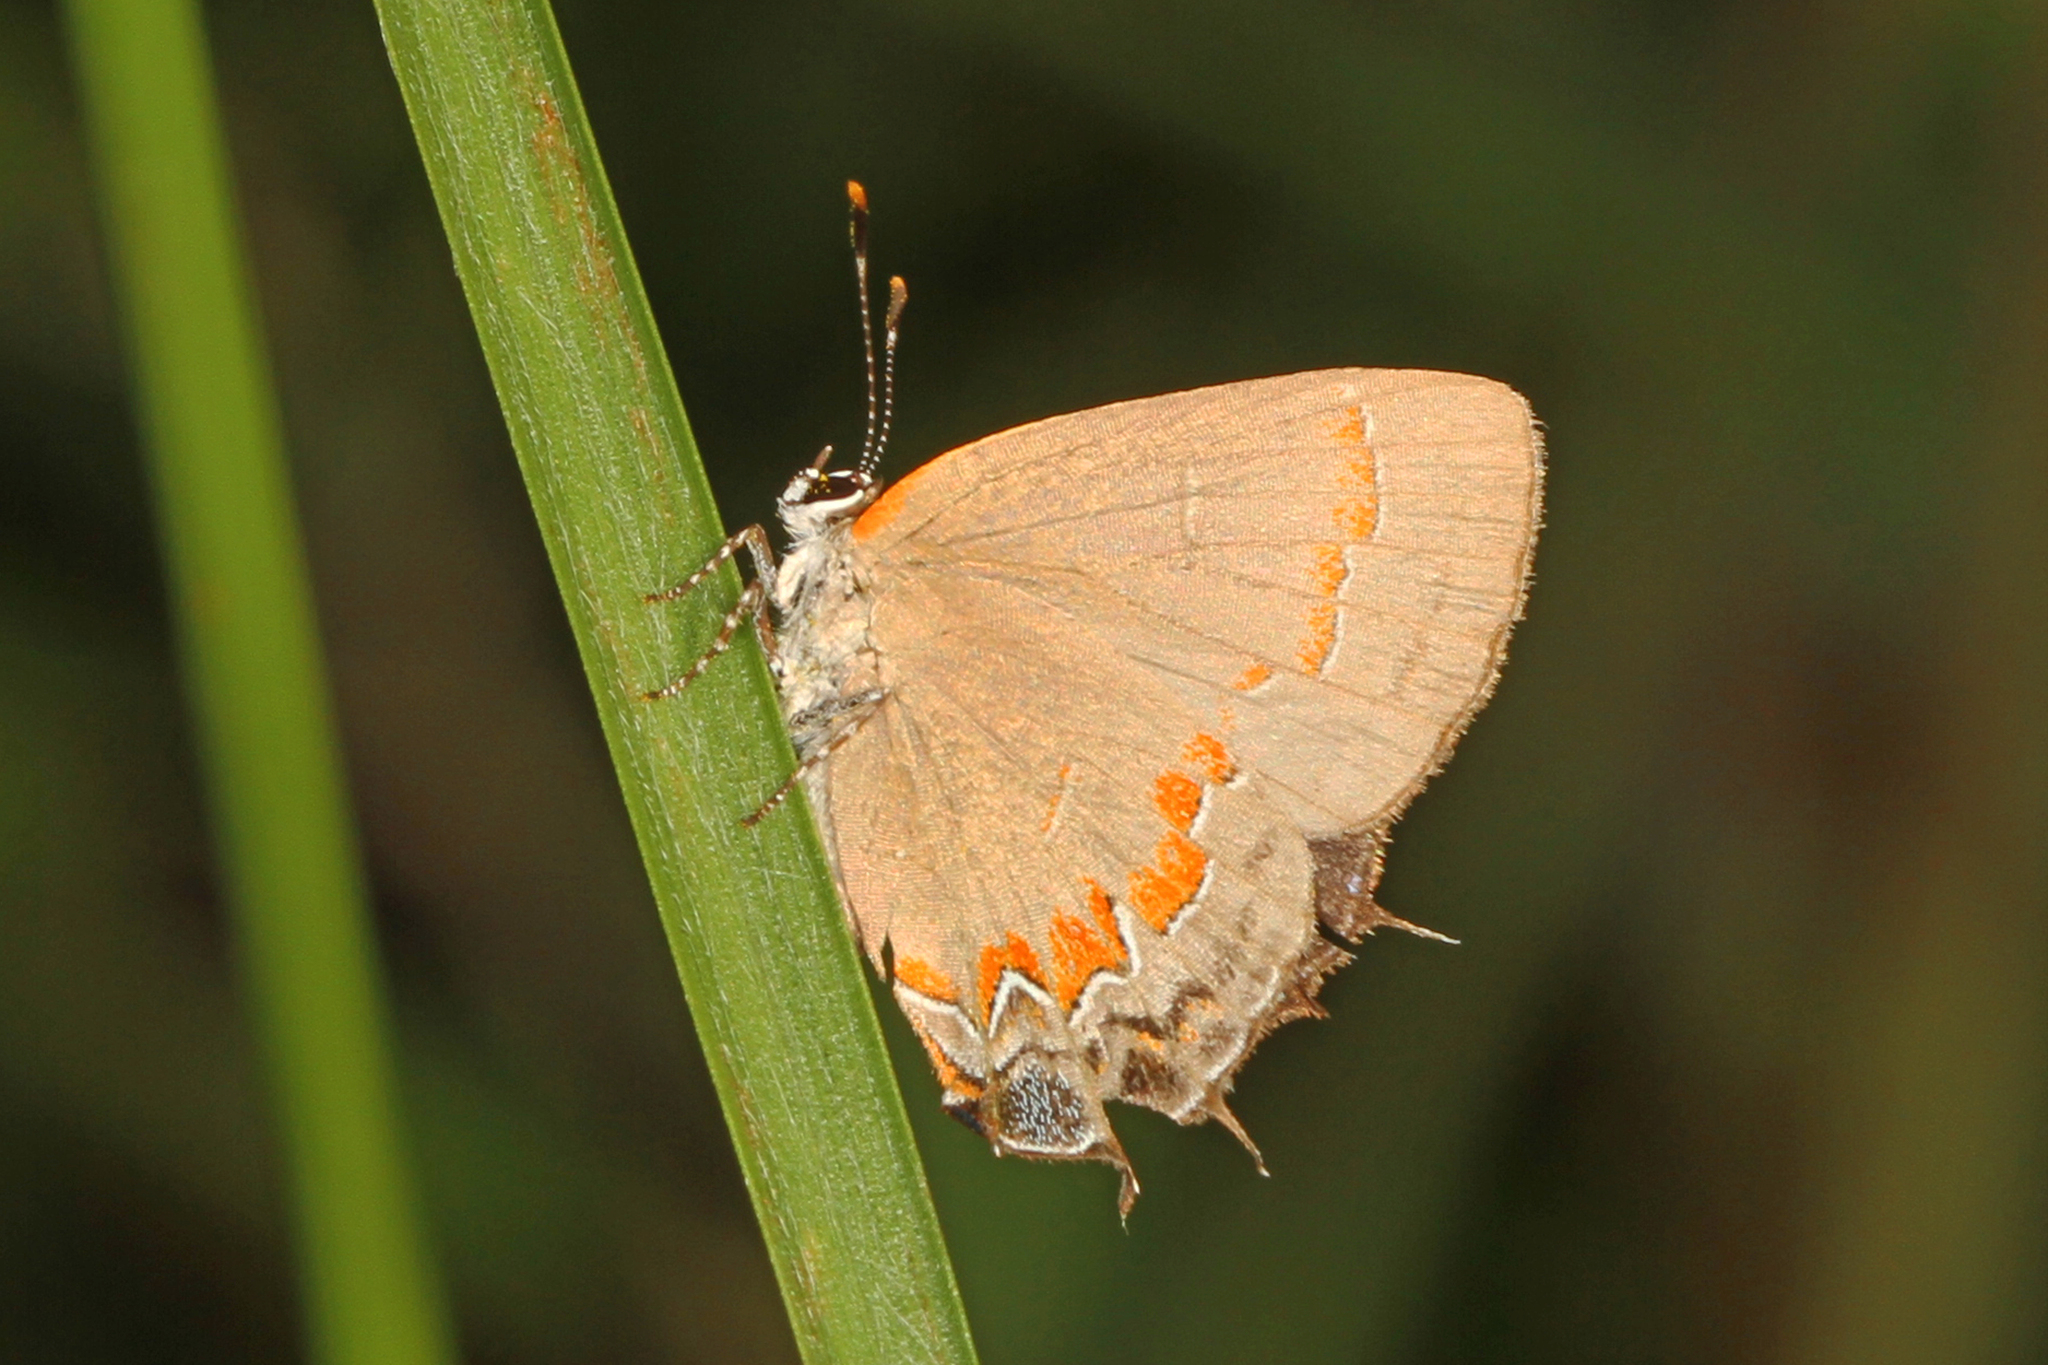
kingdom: Animalia
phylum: Arthropoda
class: Insecta
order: Lepidoptera
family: Lycaenidae
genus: Calycopis
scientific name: Calycopis cecrops
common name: Red-banded hairstreak
